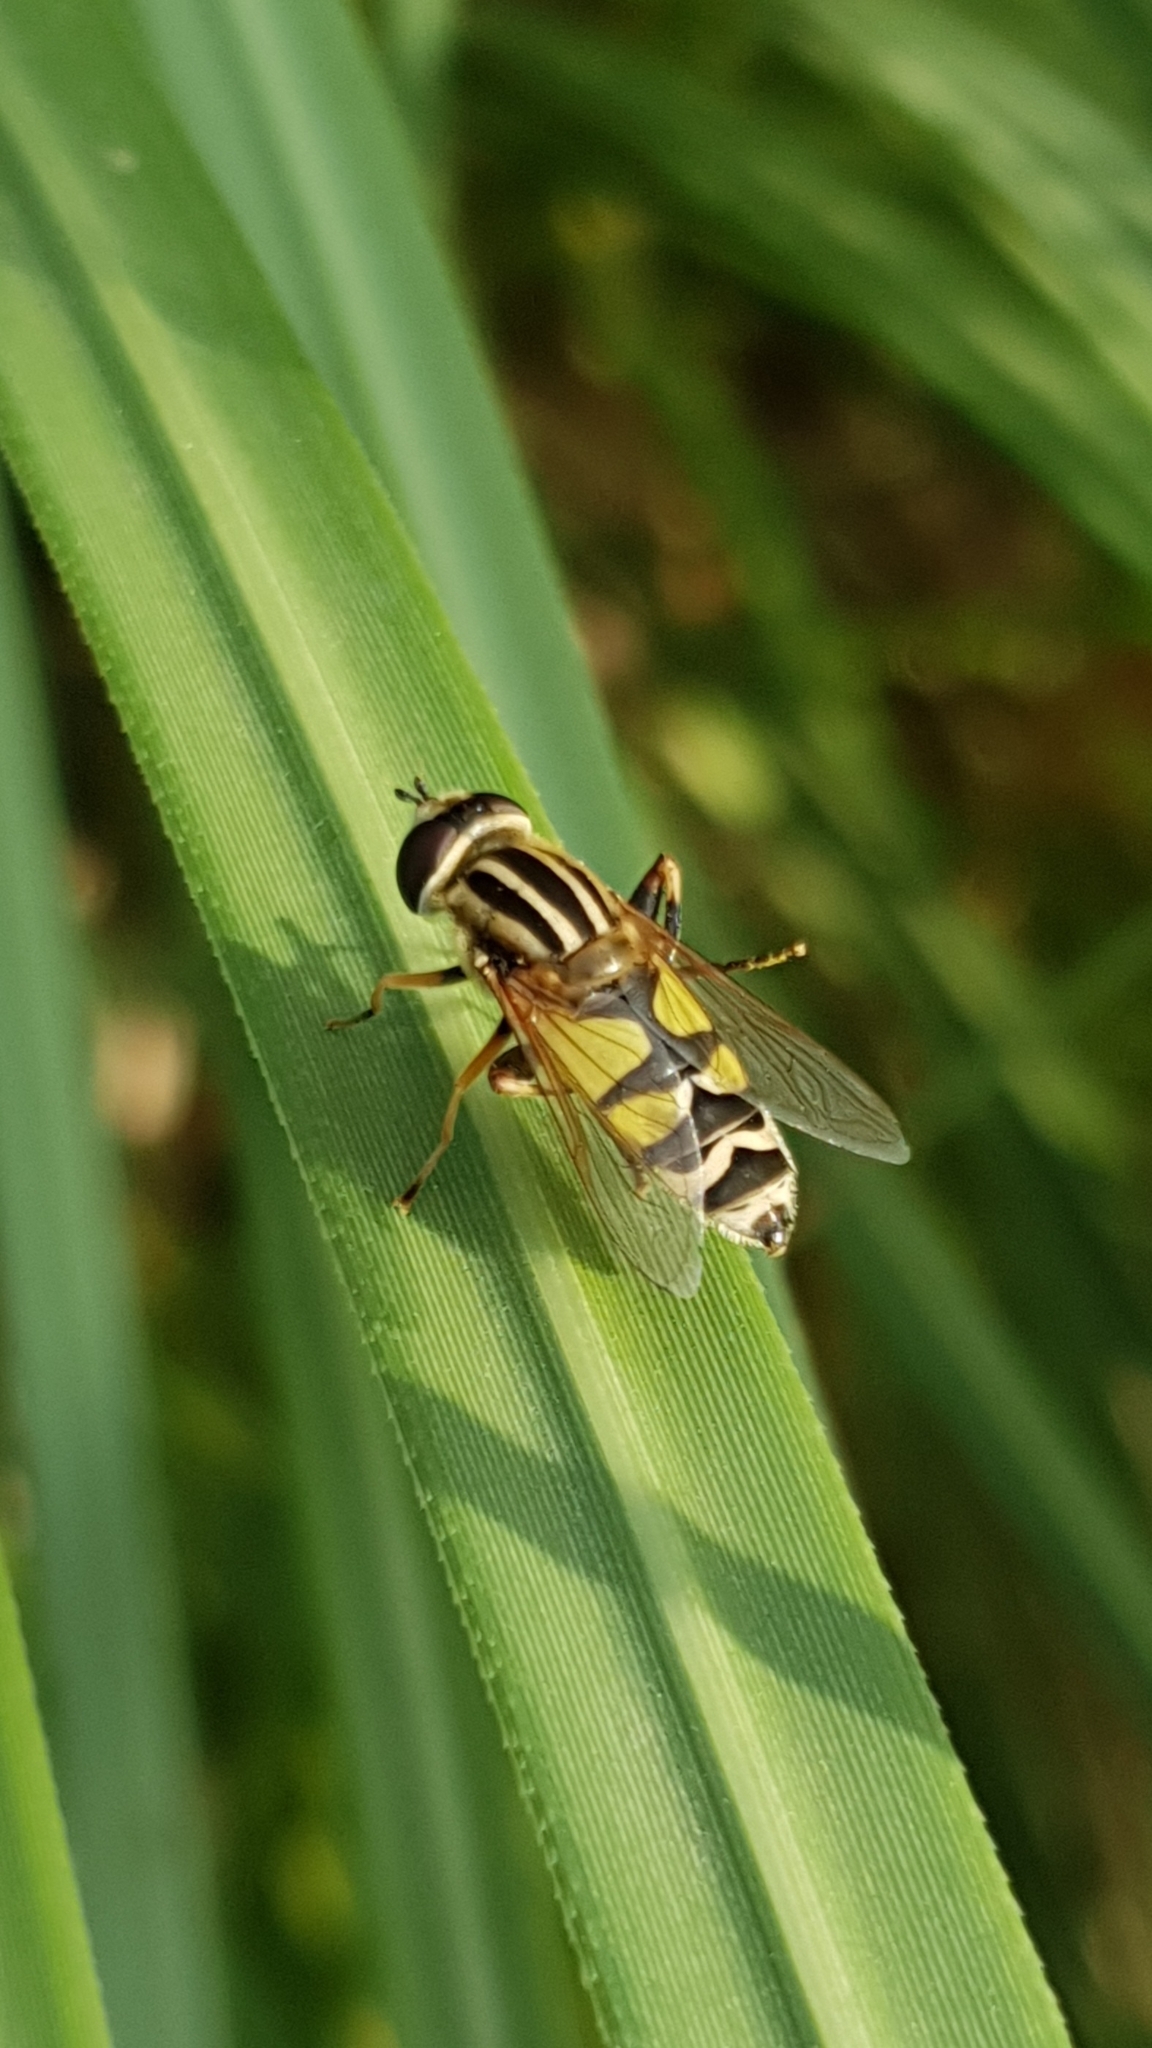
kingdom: Animalia
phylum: Arthropoda
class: Insecta
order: Diptera
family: Syrphidae
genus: Helophilus
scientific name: Helophilus trivittatus
